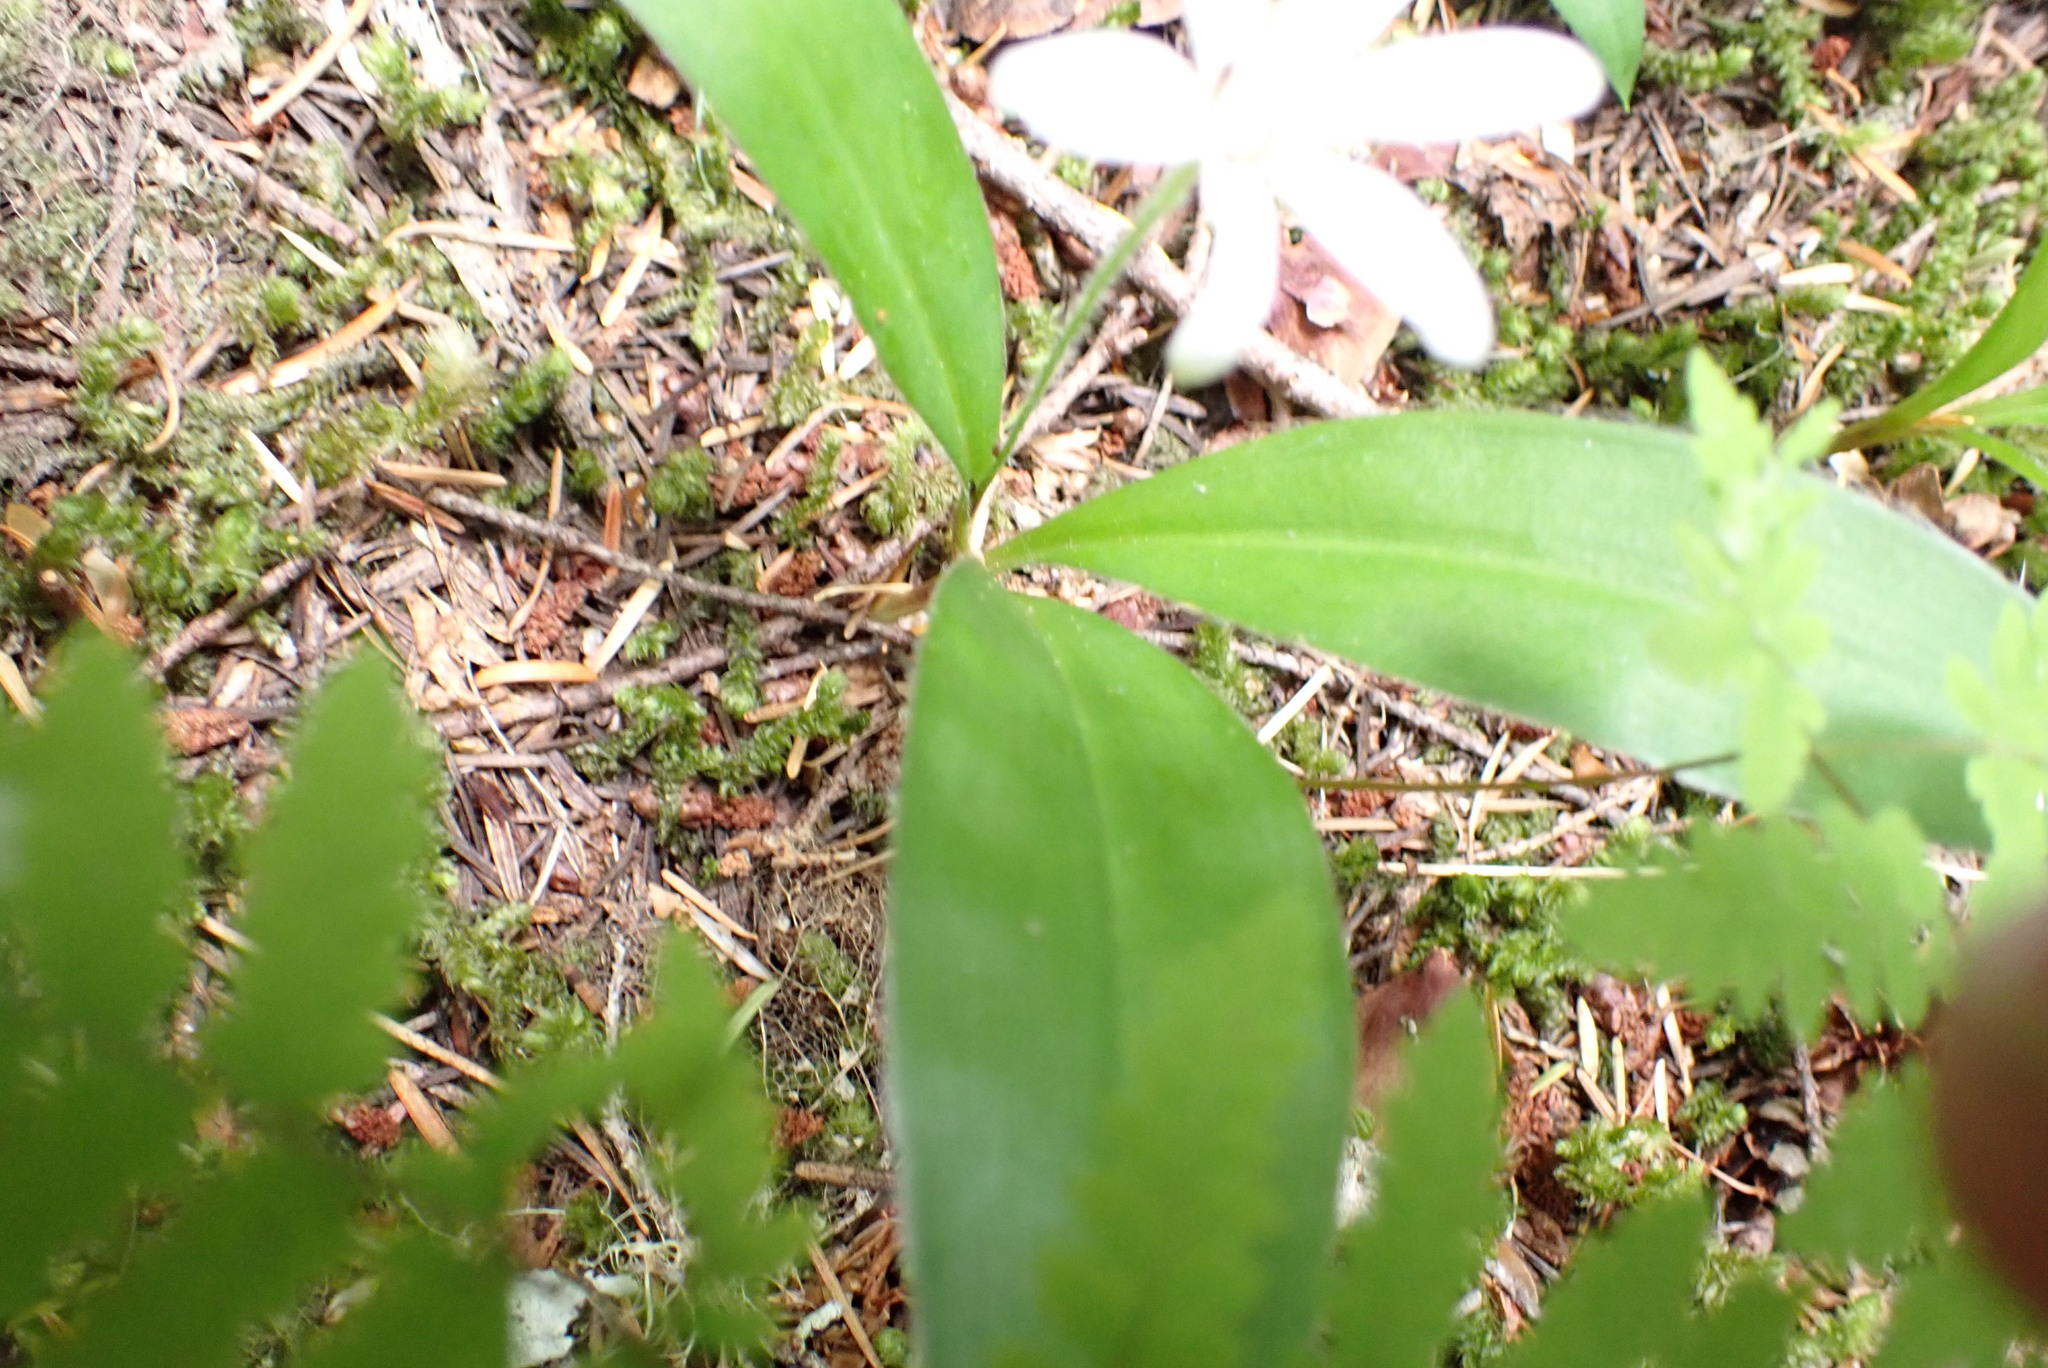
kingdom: Plantae
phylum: Tracheophyta
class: Liliopsida
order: Liliales
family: Liliaceae
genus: Clintonia
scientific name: Clintonia uniflora
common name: Queen's cup
